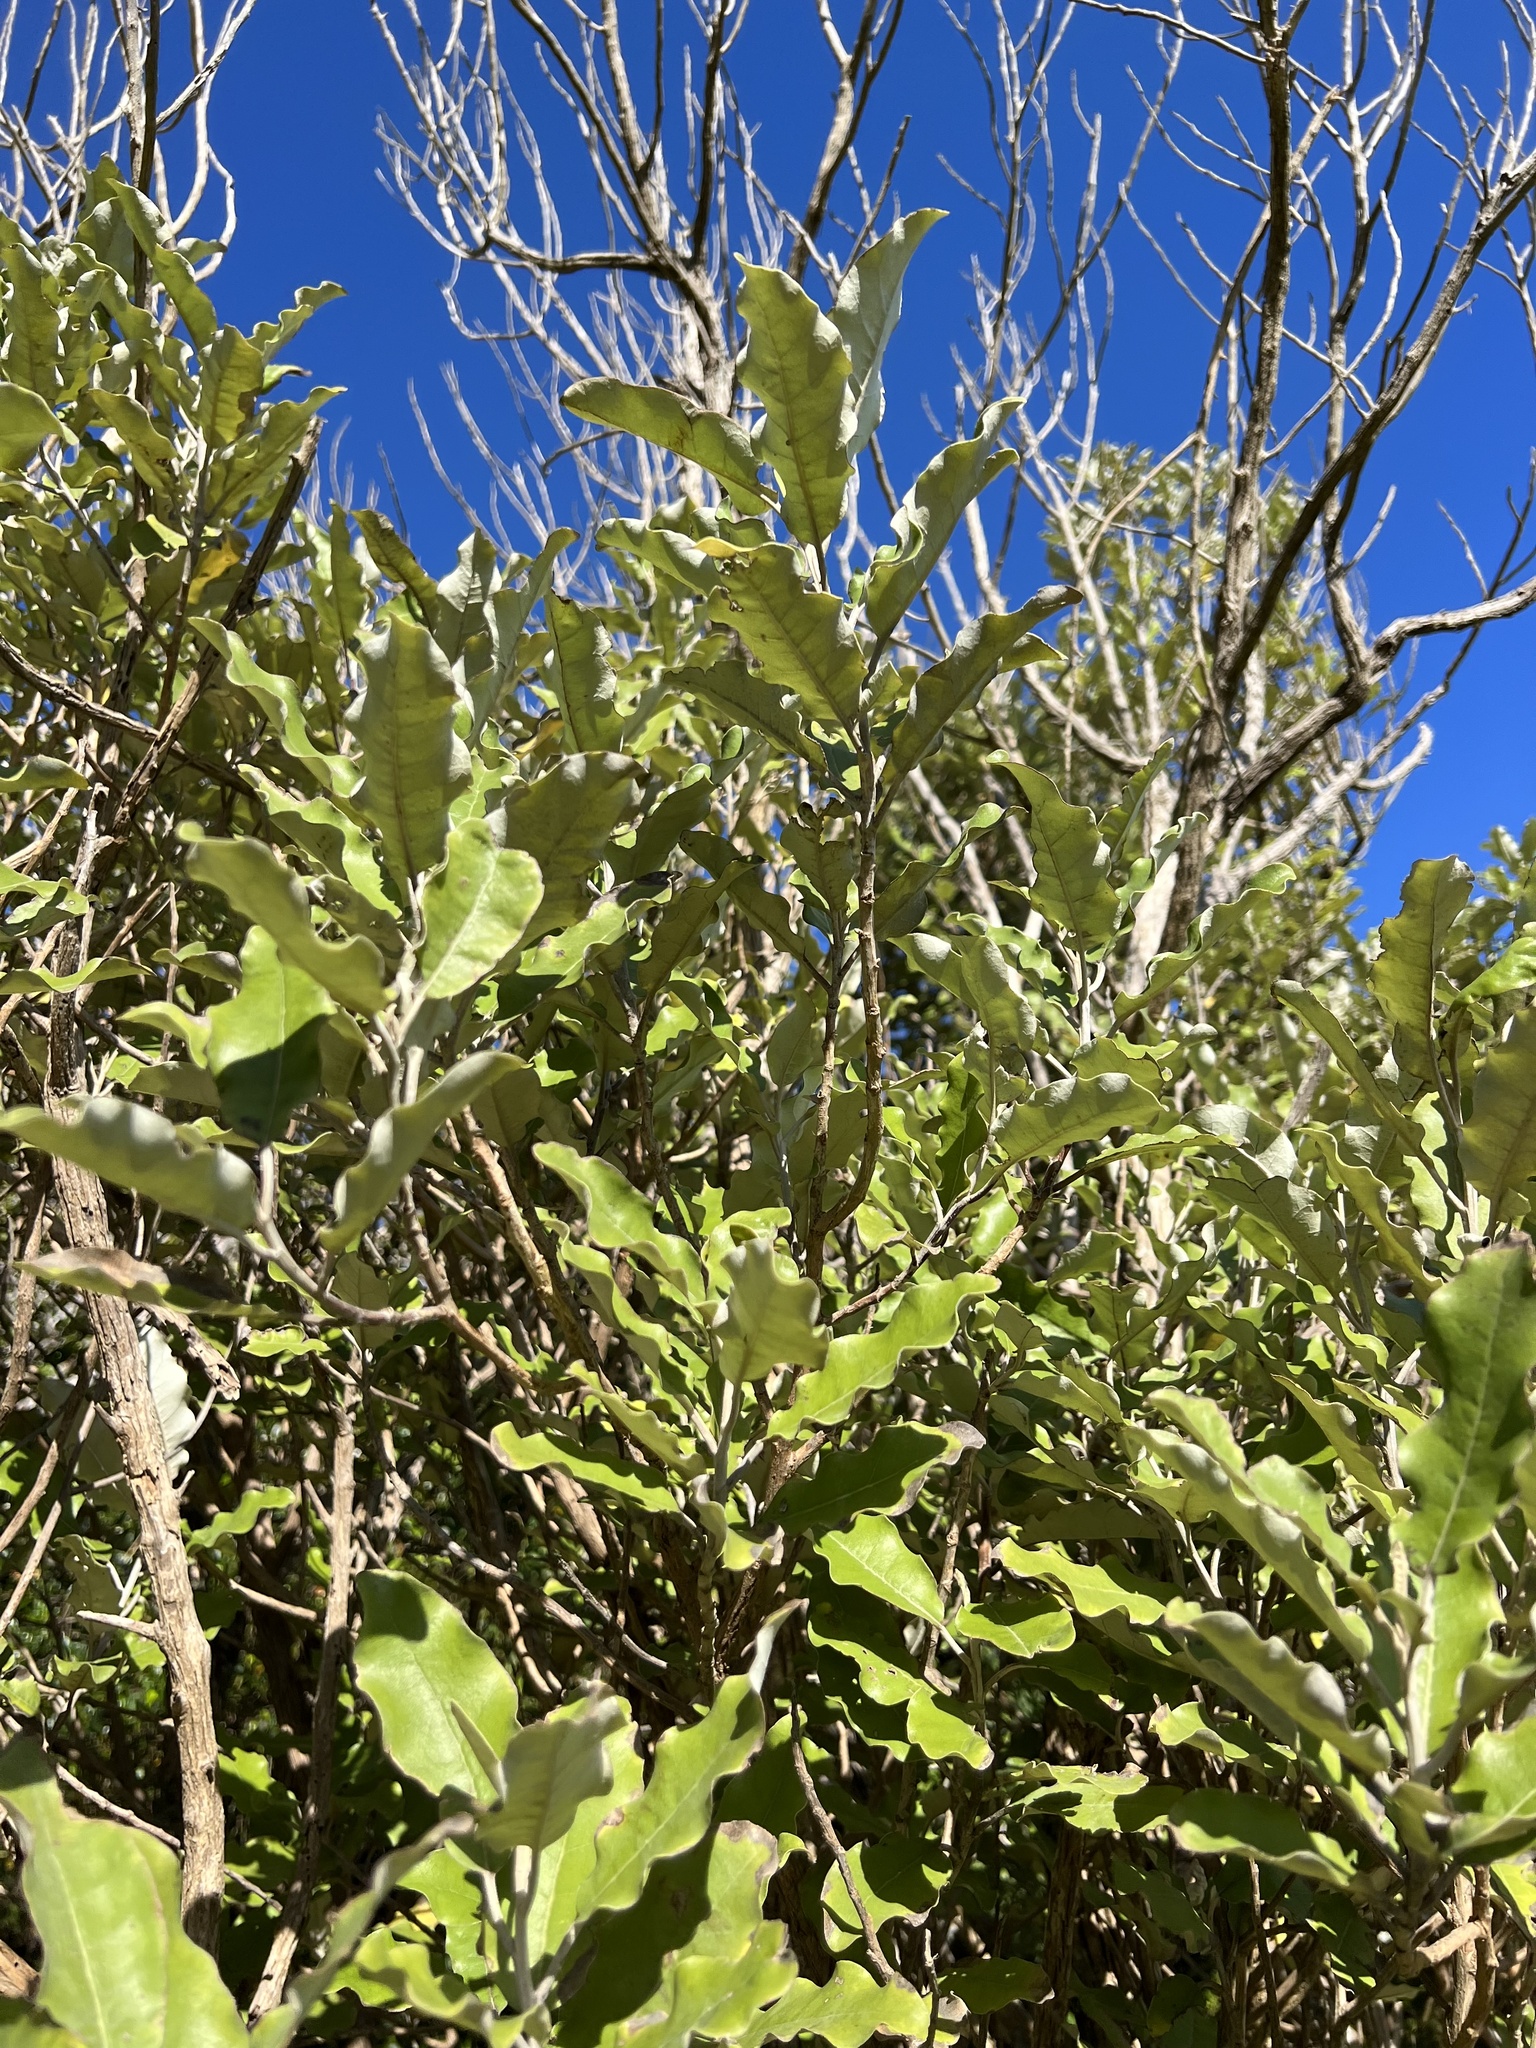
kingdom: Plantae
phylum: Tracheophyta
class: Magnoliopsida
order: Asterales
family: Asteraceae
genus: Olearia
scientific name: Olearia albida
